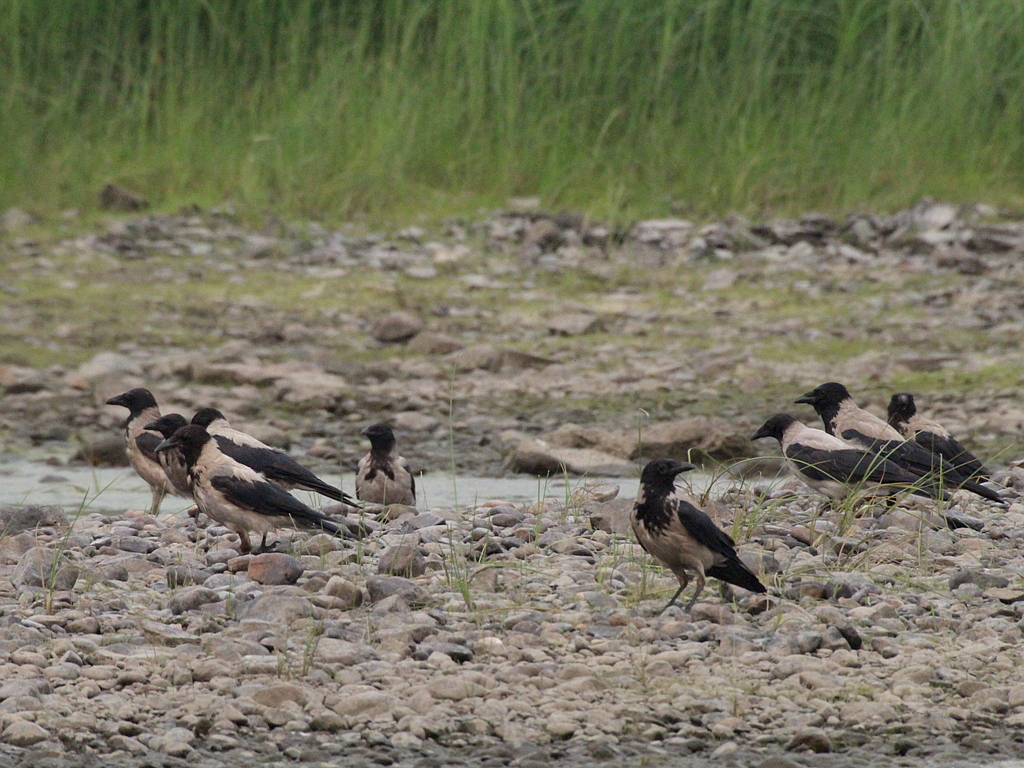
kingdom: Animalia
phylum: Chordata
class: Aves
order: Passeriformes
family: Corvidae
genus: Corvus
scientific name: Corvus cornix
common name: Hooded crow
